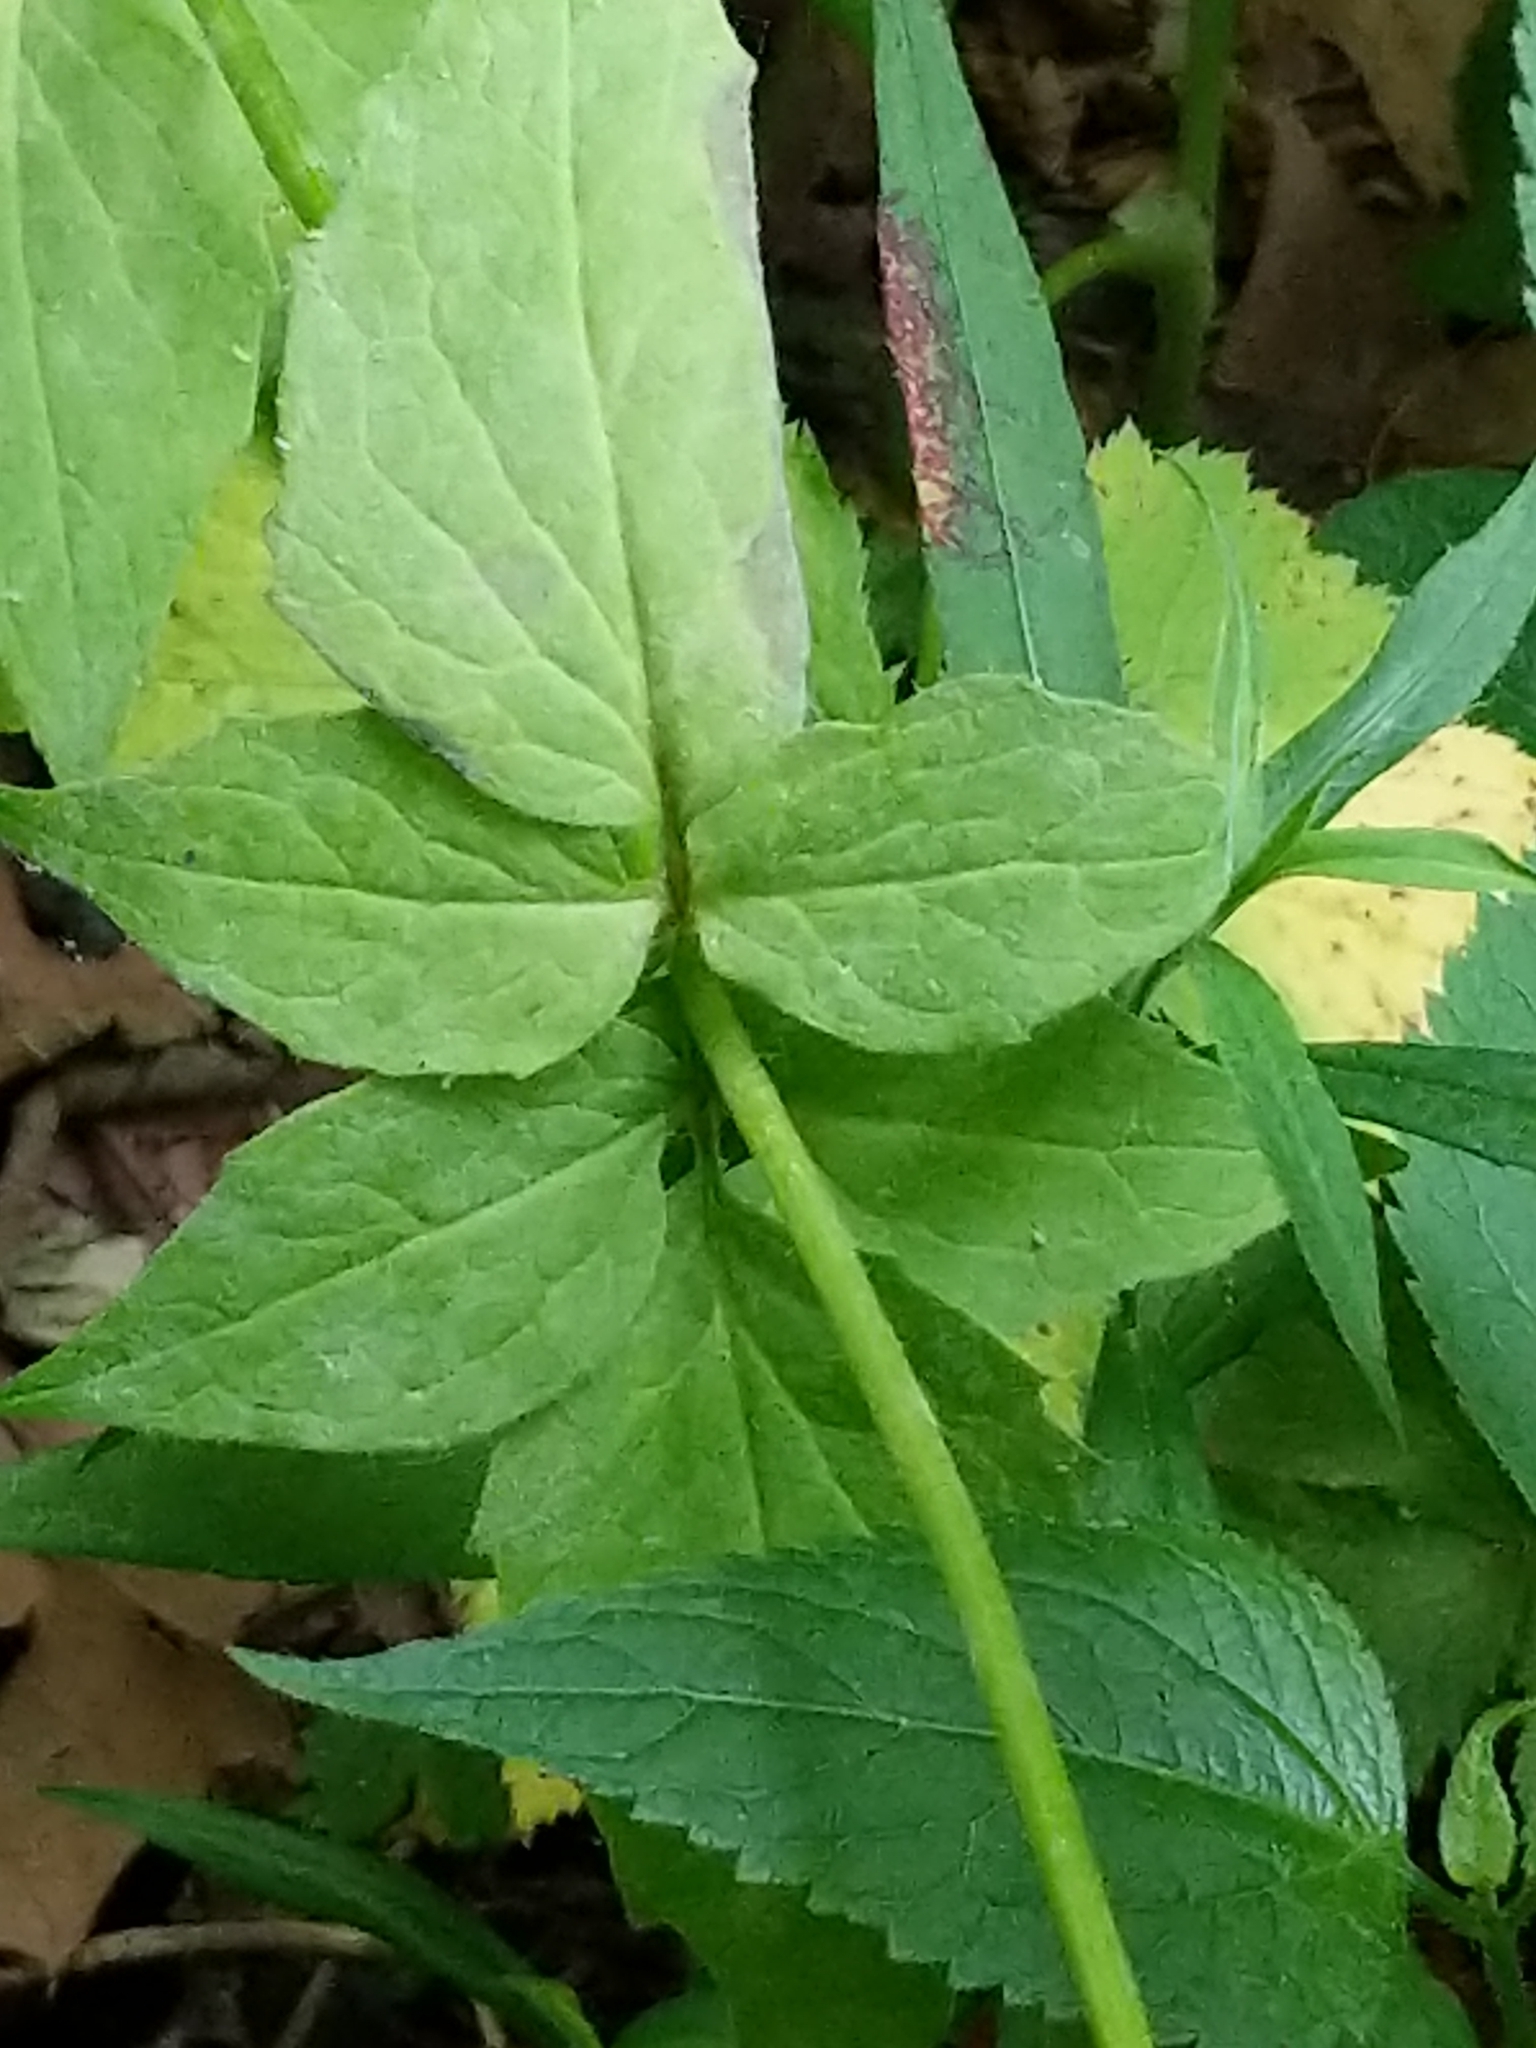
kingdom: Plantae
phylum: Tracheophyta
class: Magnoliopsida
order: Dipsacales
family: Caprifoliaceae
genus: Valeriana
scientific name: Valeriana pauciflora
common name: Long-tube valeriana
